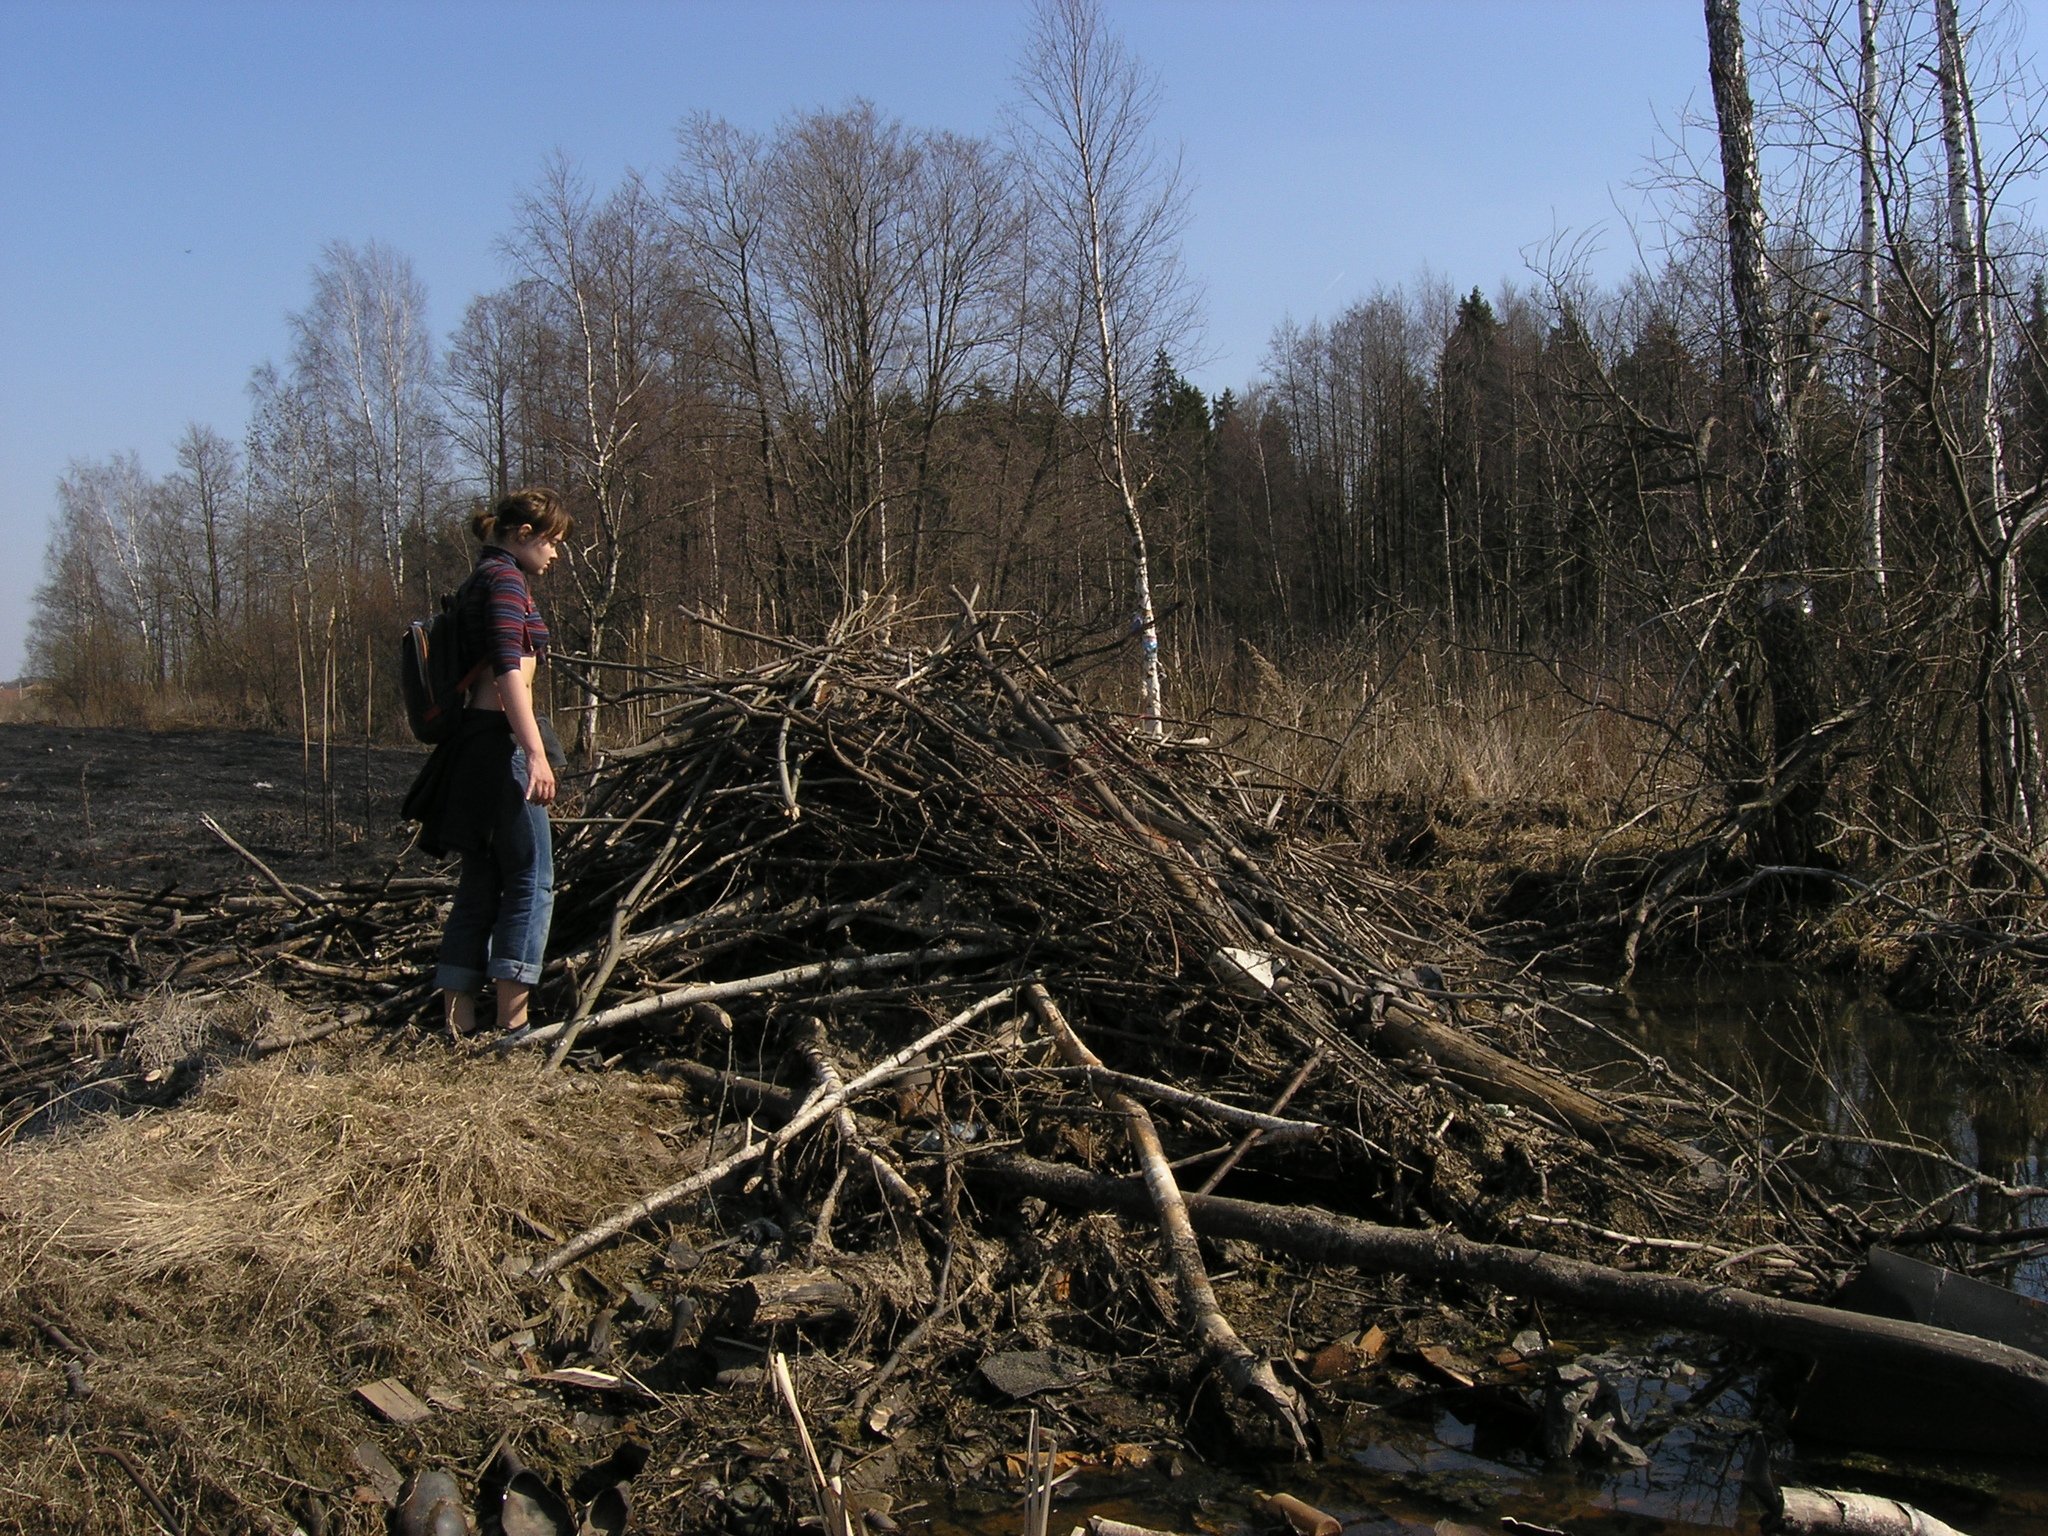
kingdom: Animalia
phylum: Chordata
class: Mammalia
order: Rodentia
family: Castoridae
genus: Castor
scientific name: Castor fiber
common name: Eurasian beaver
